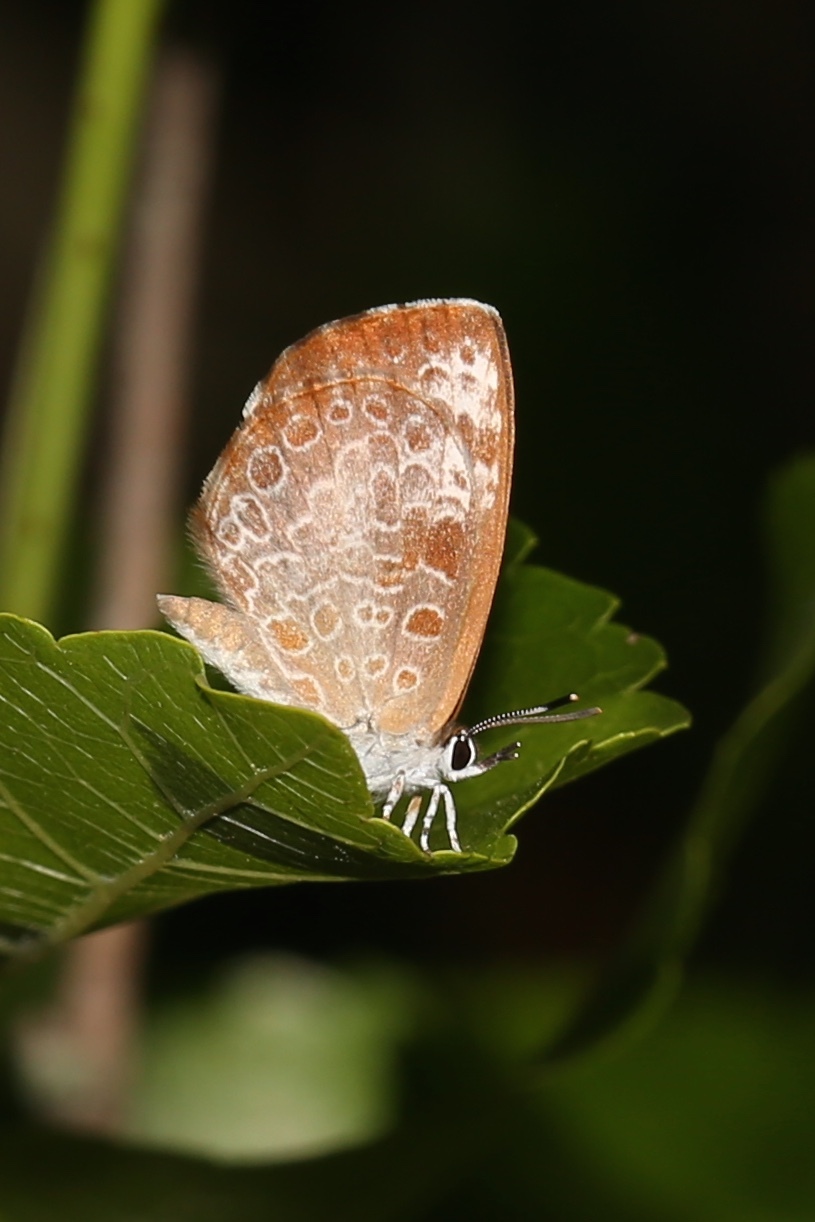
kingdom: Animalia
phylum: Arthropoda
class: Insecta
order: Lepidoptera
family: Lycaenidae
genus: Feniseca
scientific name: Feniseca tarquinius
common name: Harvester
